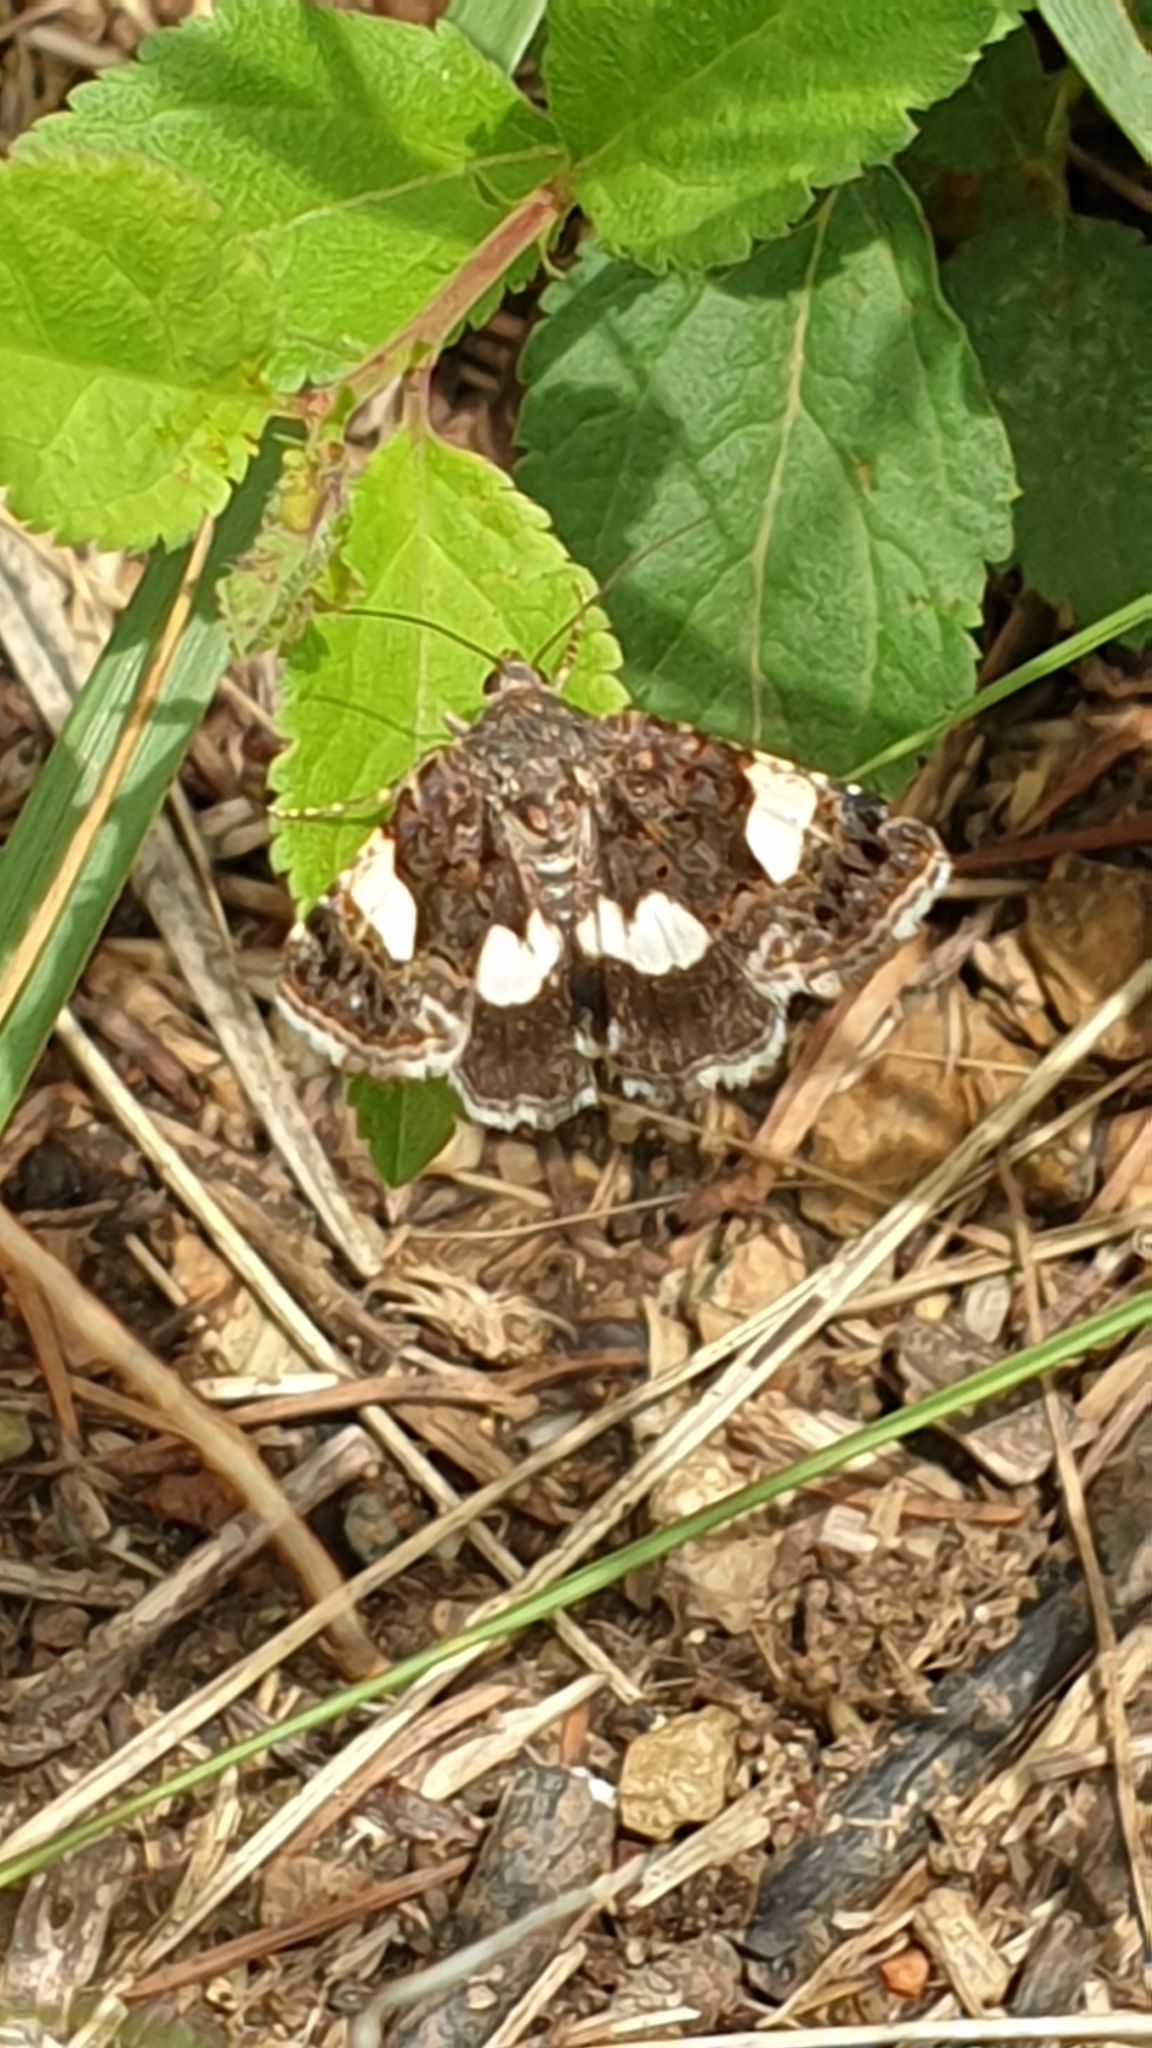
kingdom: Animalia
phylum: Arthropoda
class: Insecta
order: Lepidoptera
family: Erebidae
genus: Tyta
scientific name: Tyta luctuosa
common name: Four-spotted
